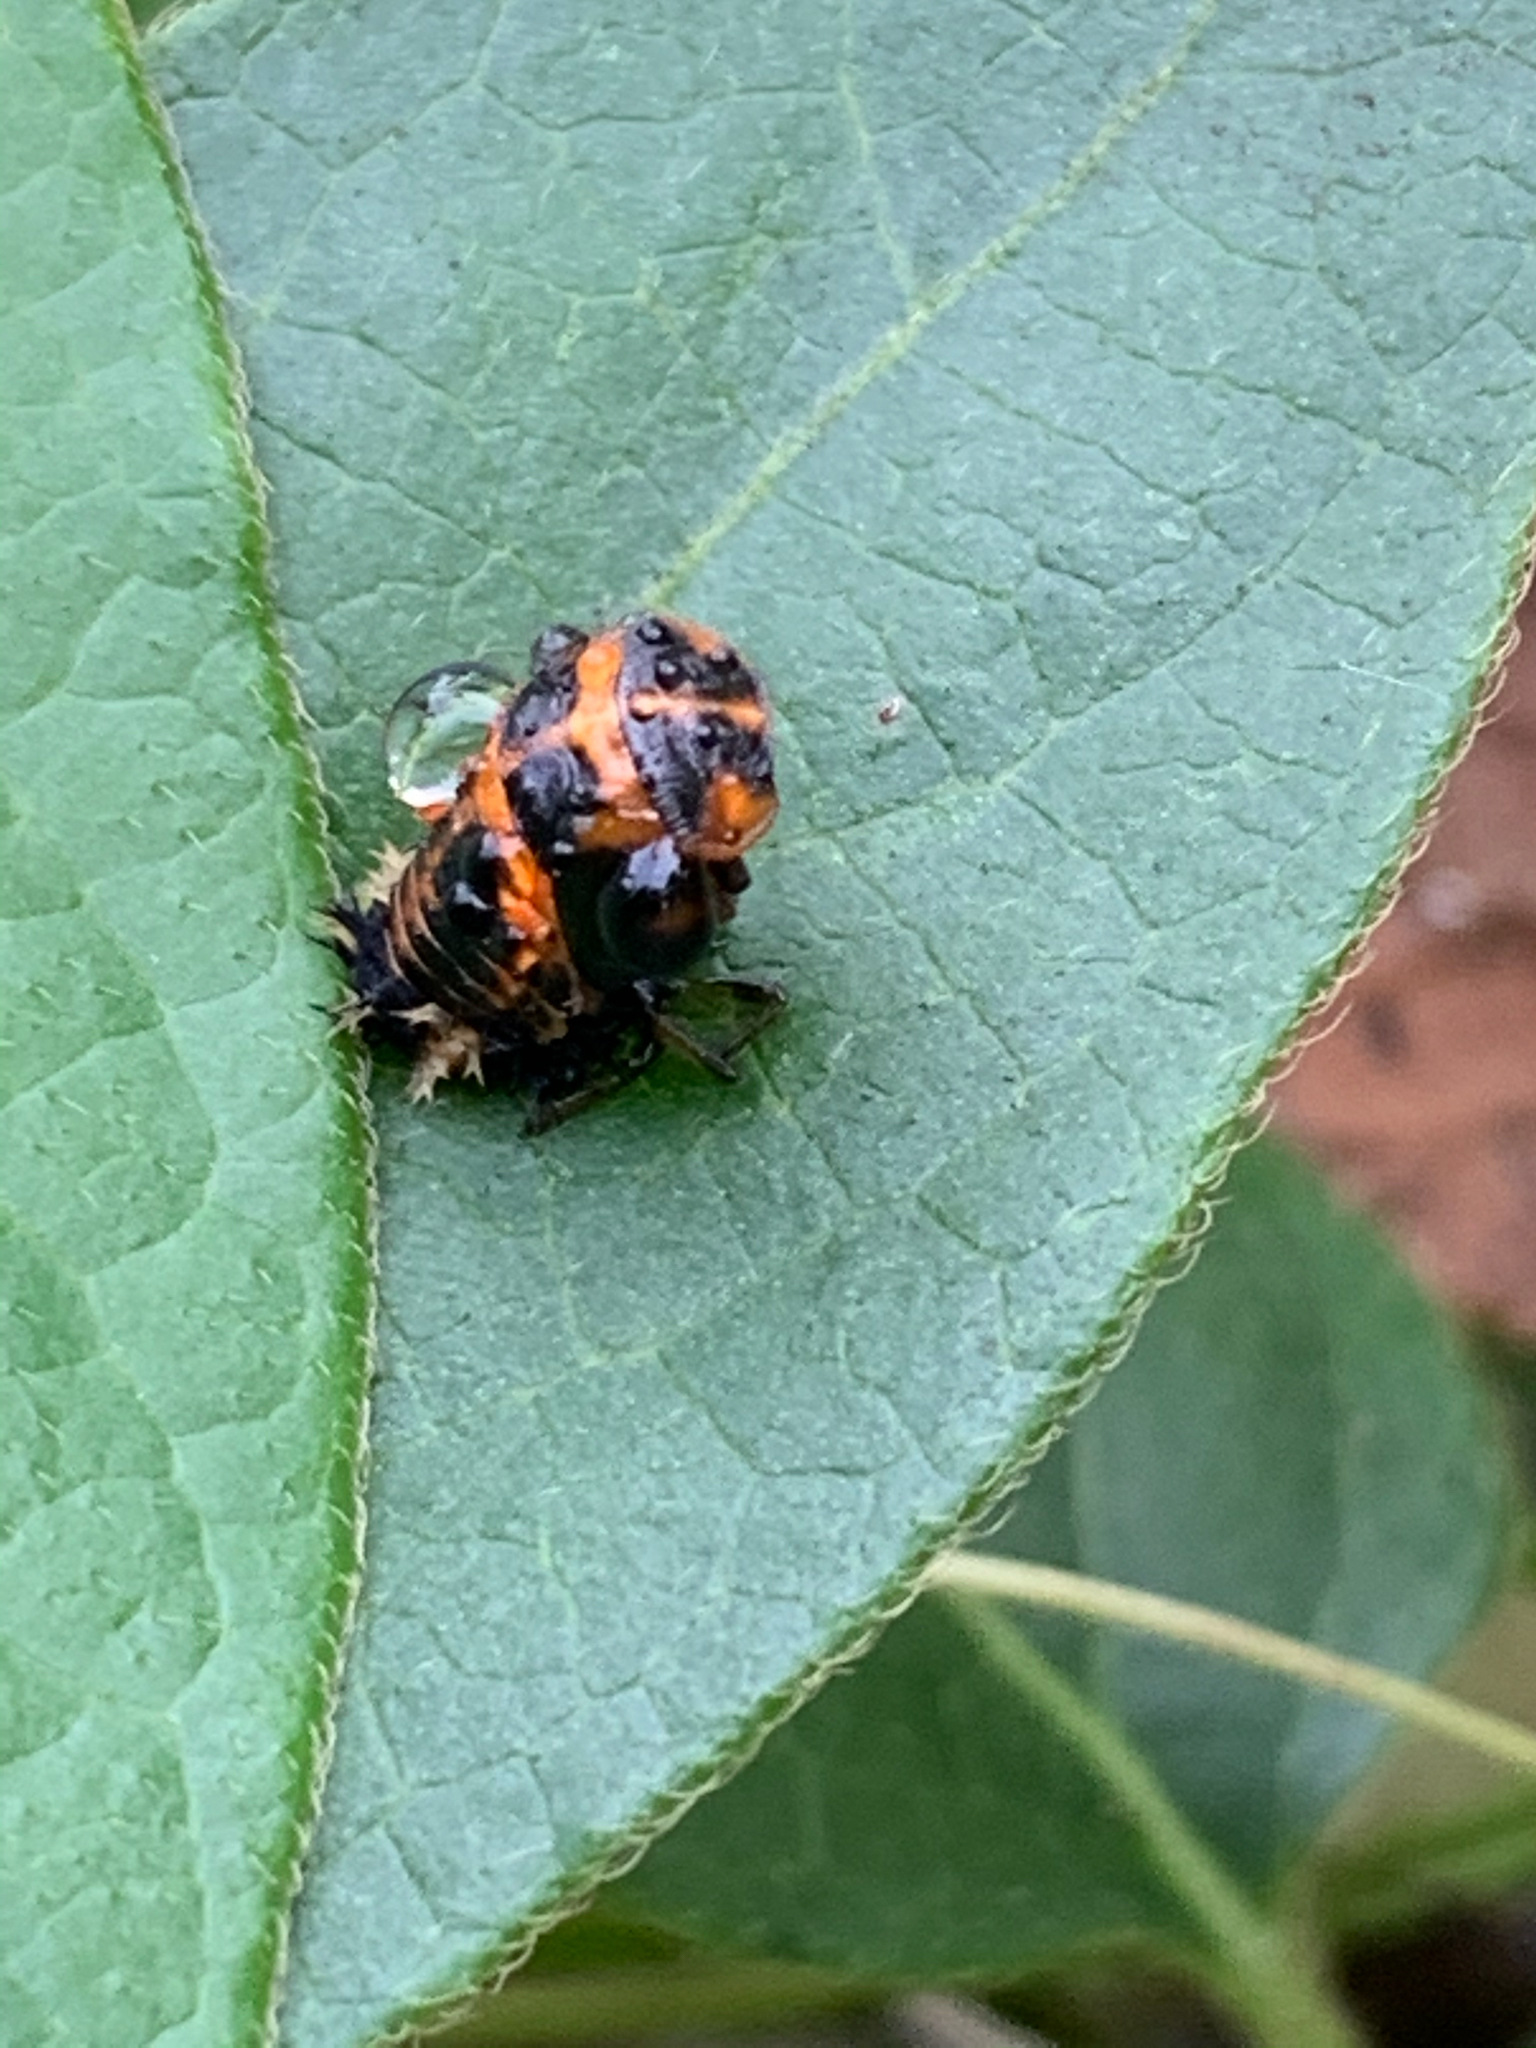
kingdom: Animalia
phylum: Arthropoda
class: Insecta
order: Coleoptera
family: Coccinellidae
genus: Harmonia
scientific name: Harmonia axyridis
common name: Harlequin ladybird
